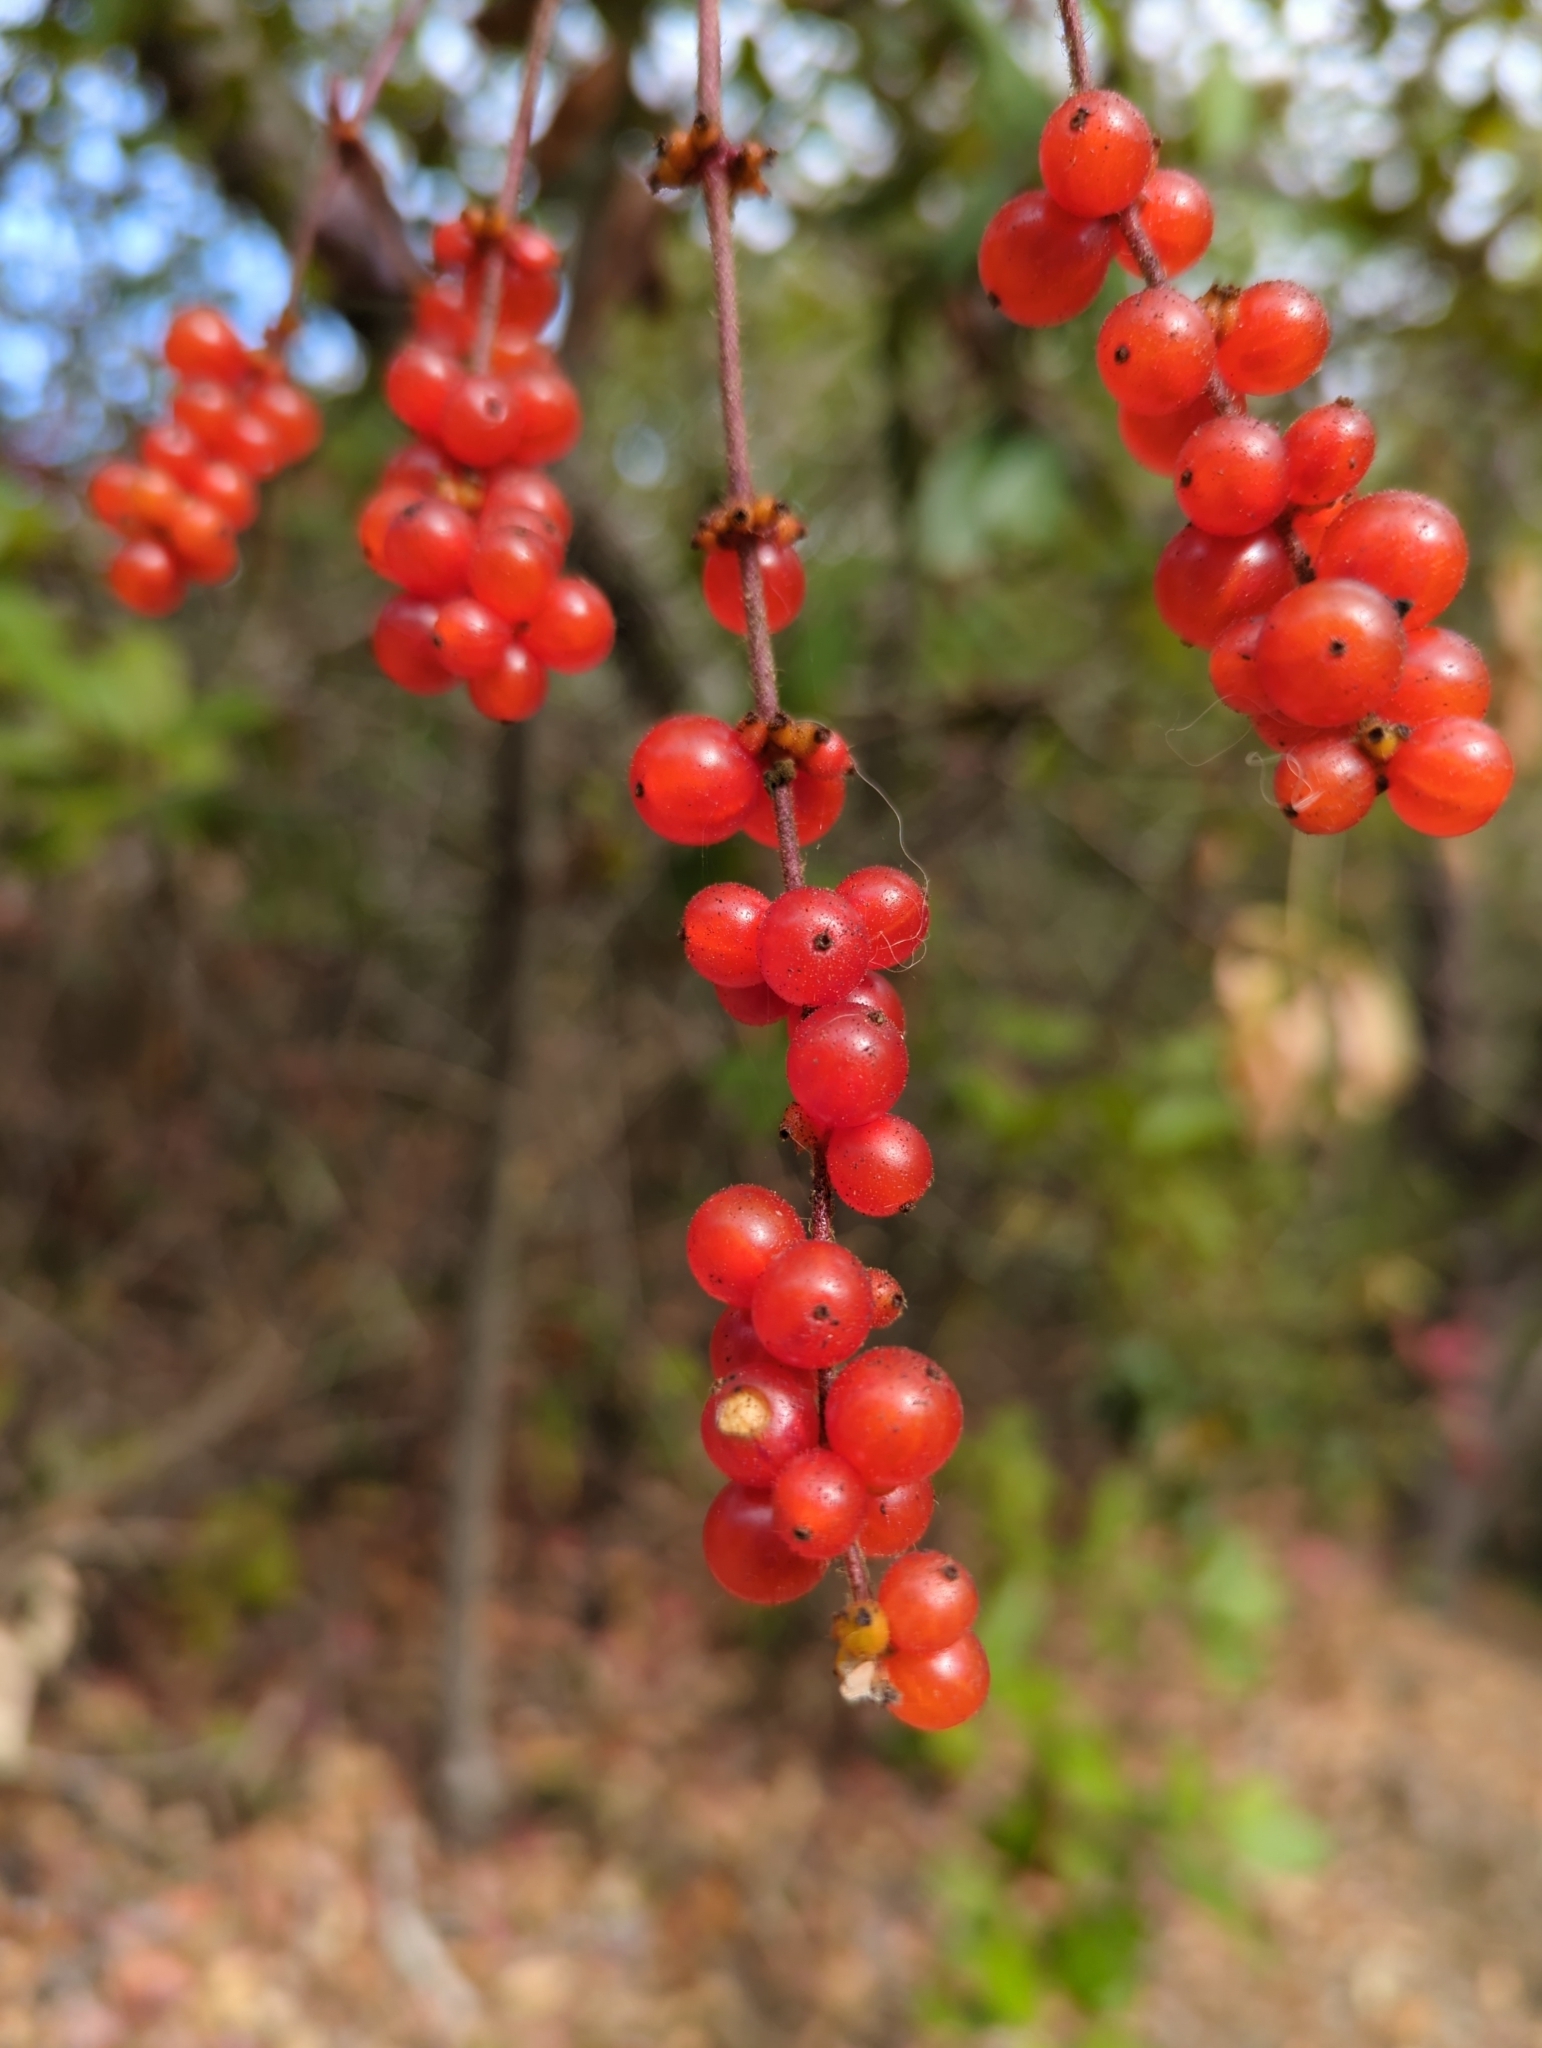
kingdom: Plantae
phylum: Tracheophyta
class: Magnoliopsida
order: Dipsacales
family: Caprifoliaceae
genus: Lonicera
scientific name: Lonicera hispidula
